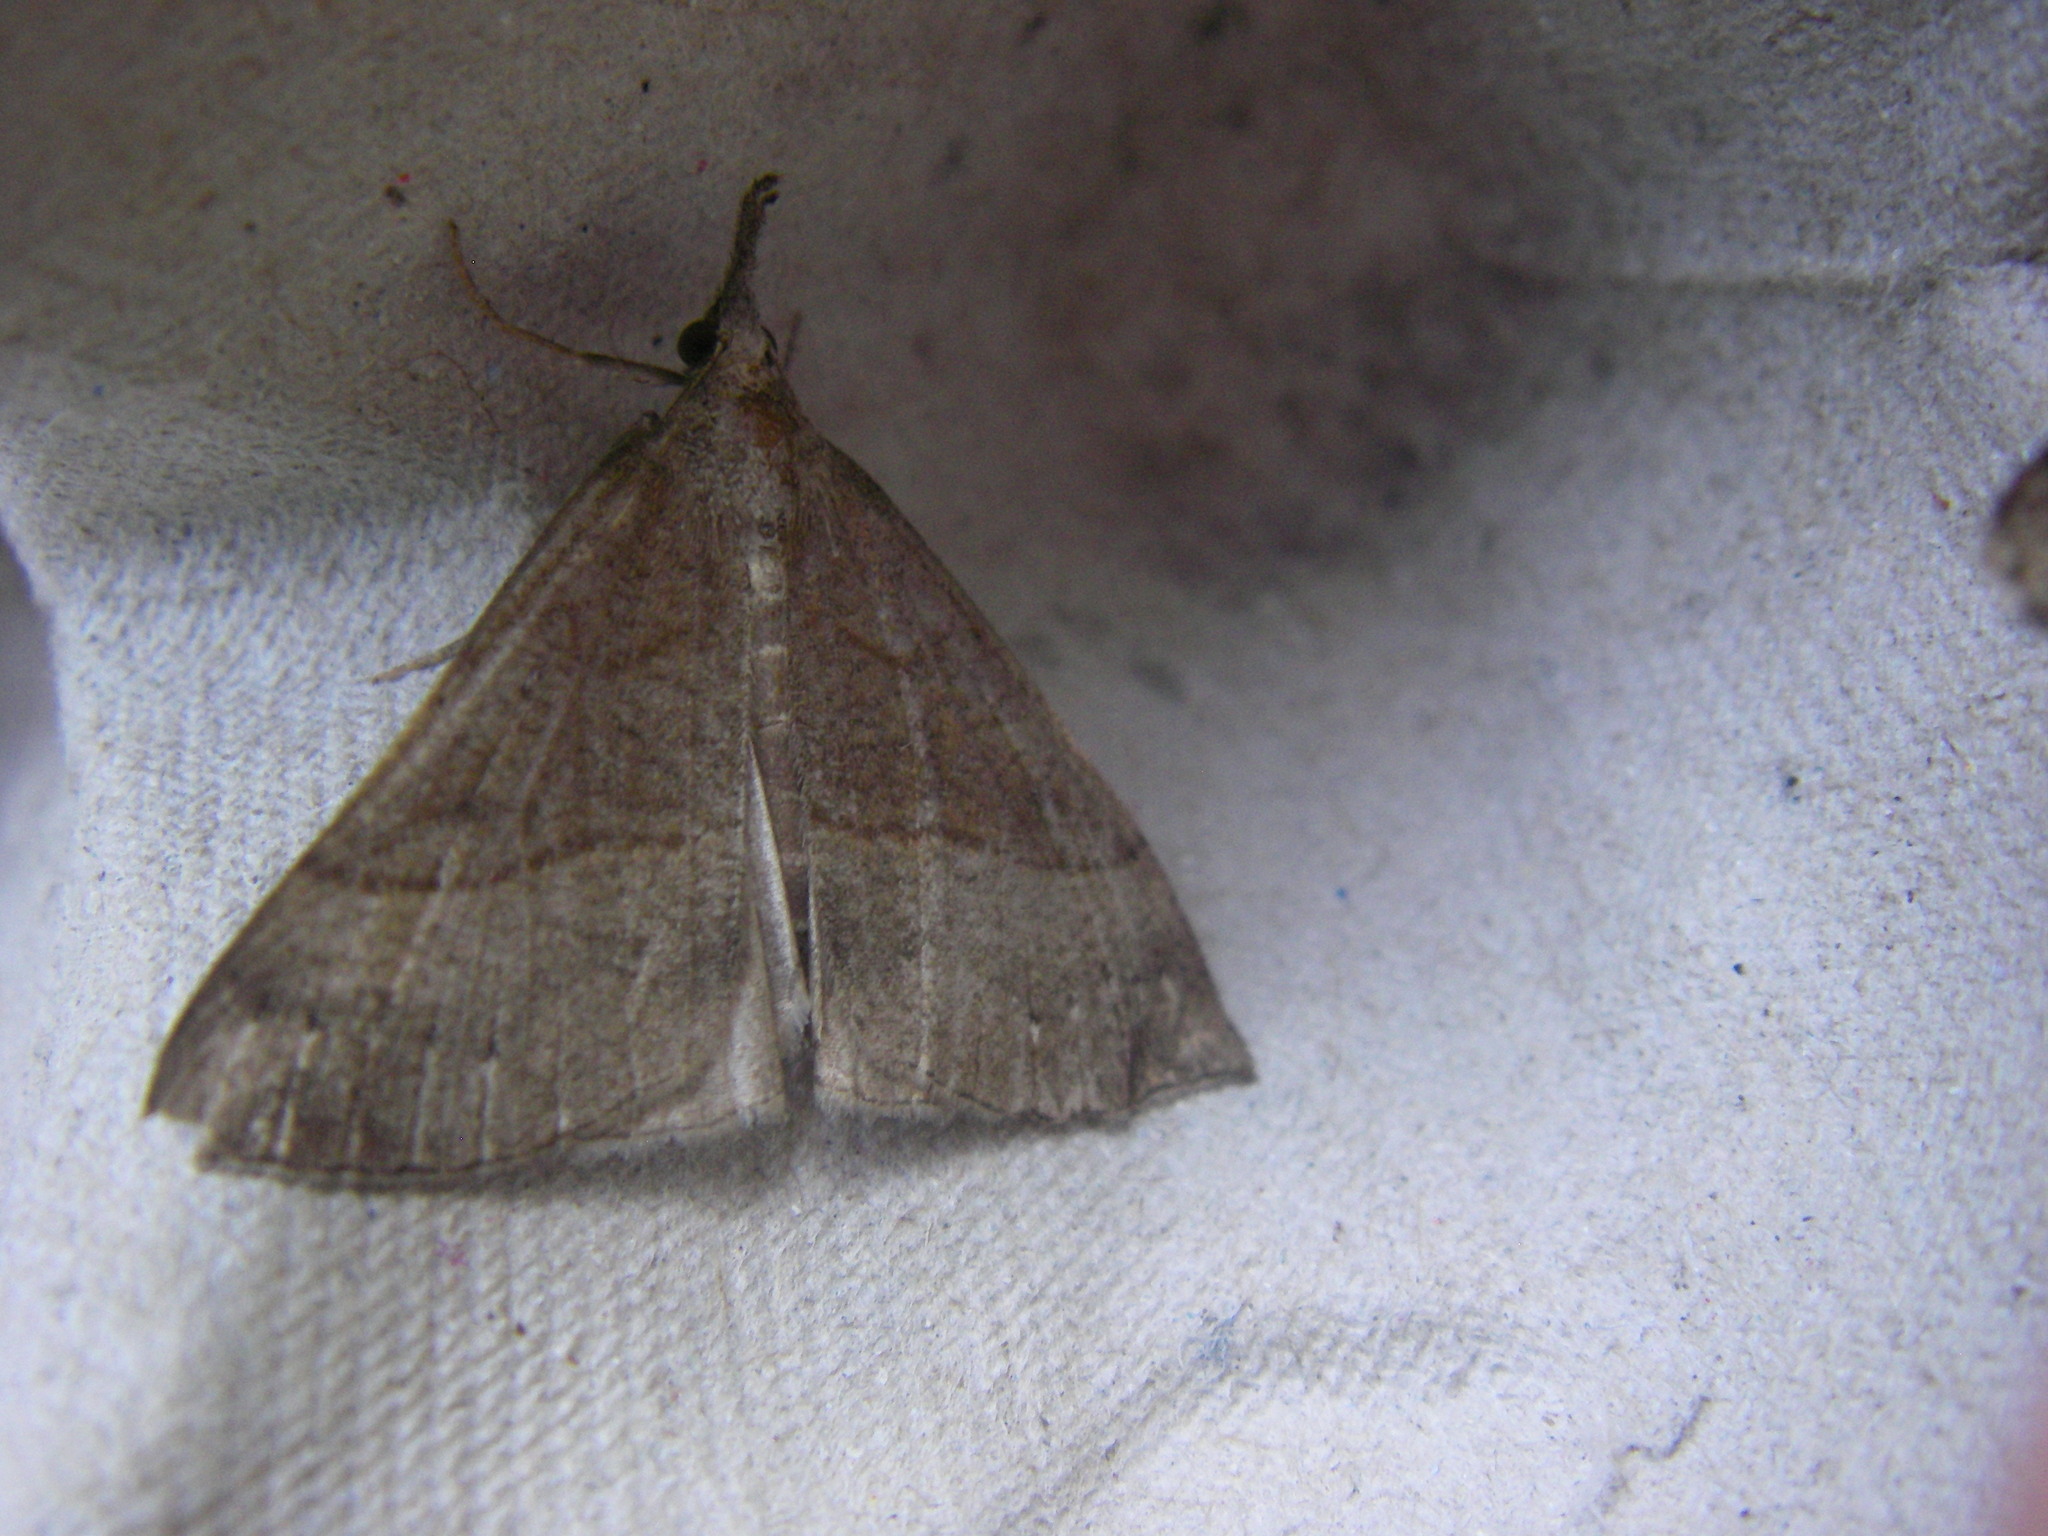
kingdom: Animalia
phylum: Arthropoda
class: Insecta
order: Lepidoptera
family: Erebidae
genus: Hypena
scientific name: Hypena proboscidalis
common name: Snout
